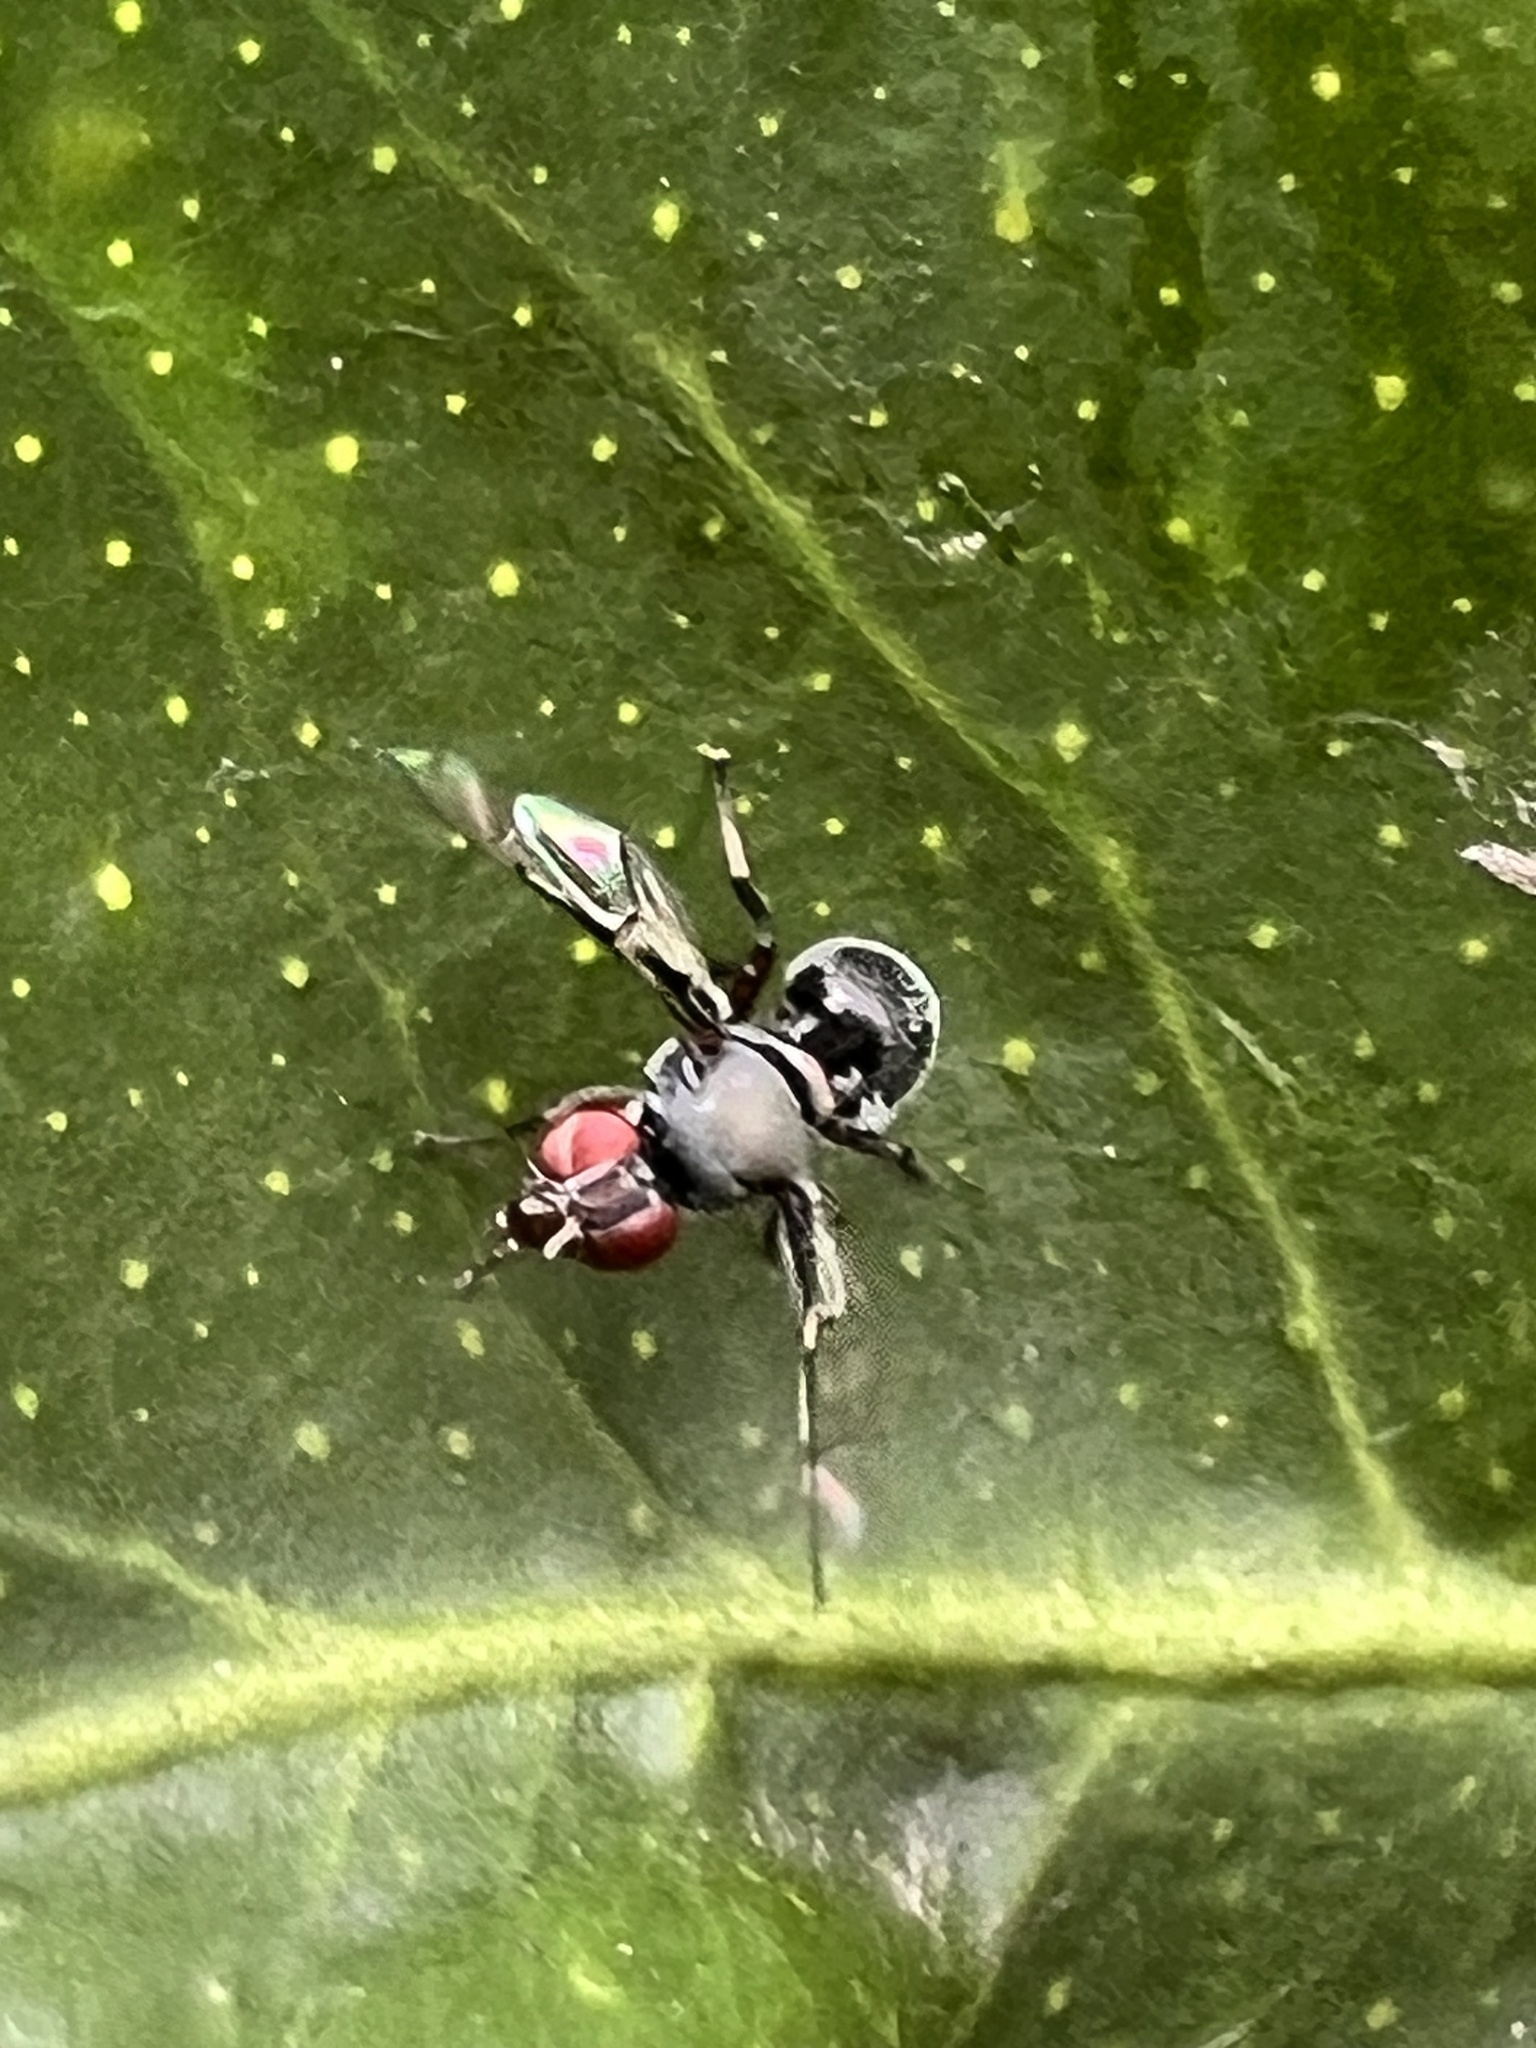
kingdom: Animalia
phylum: Arthropoda
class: Insecta
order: Diptera
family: Platystomatidae
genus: Pogonortalis
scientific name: Pogonortalis doclea
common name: Boatman fly
